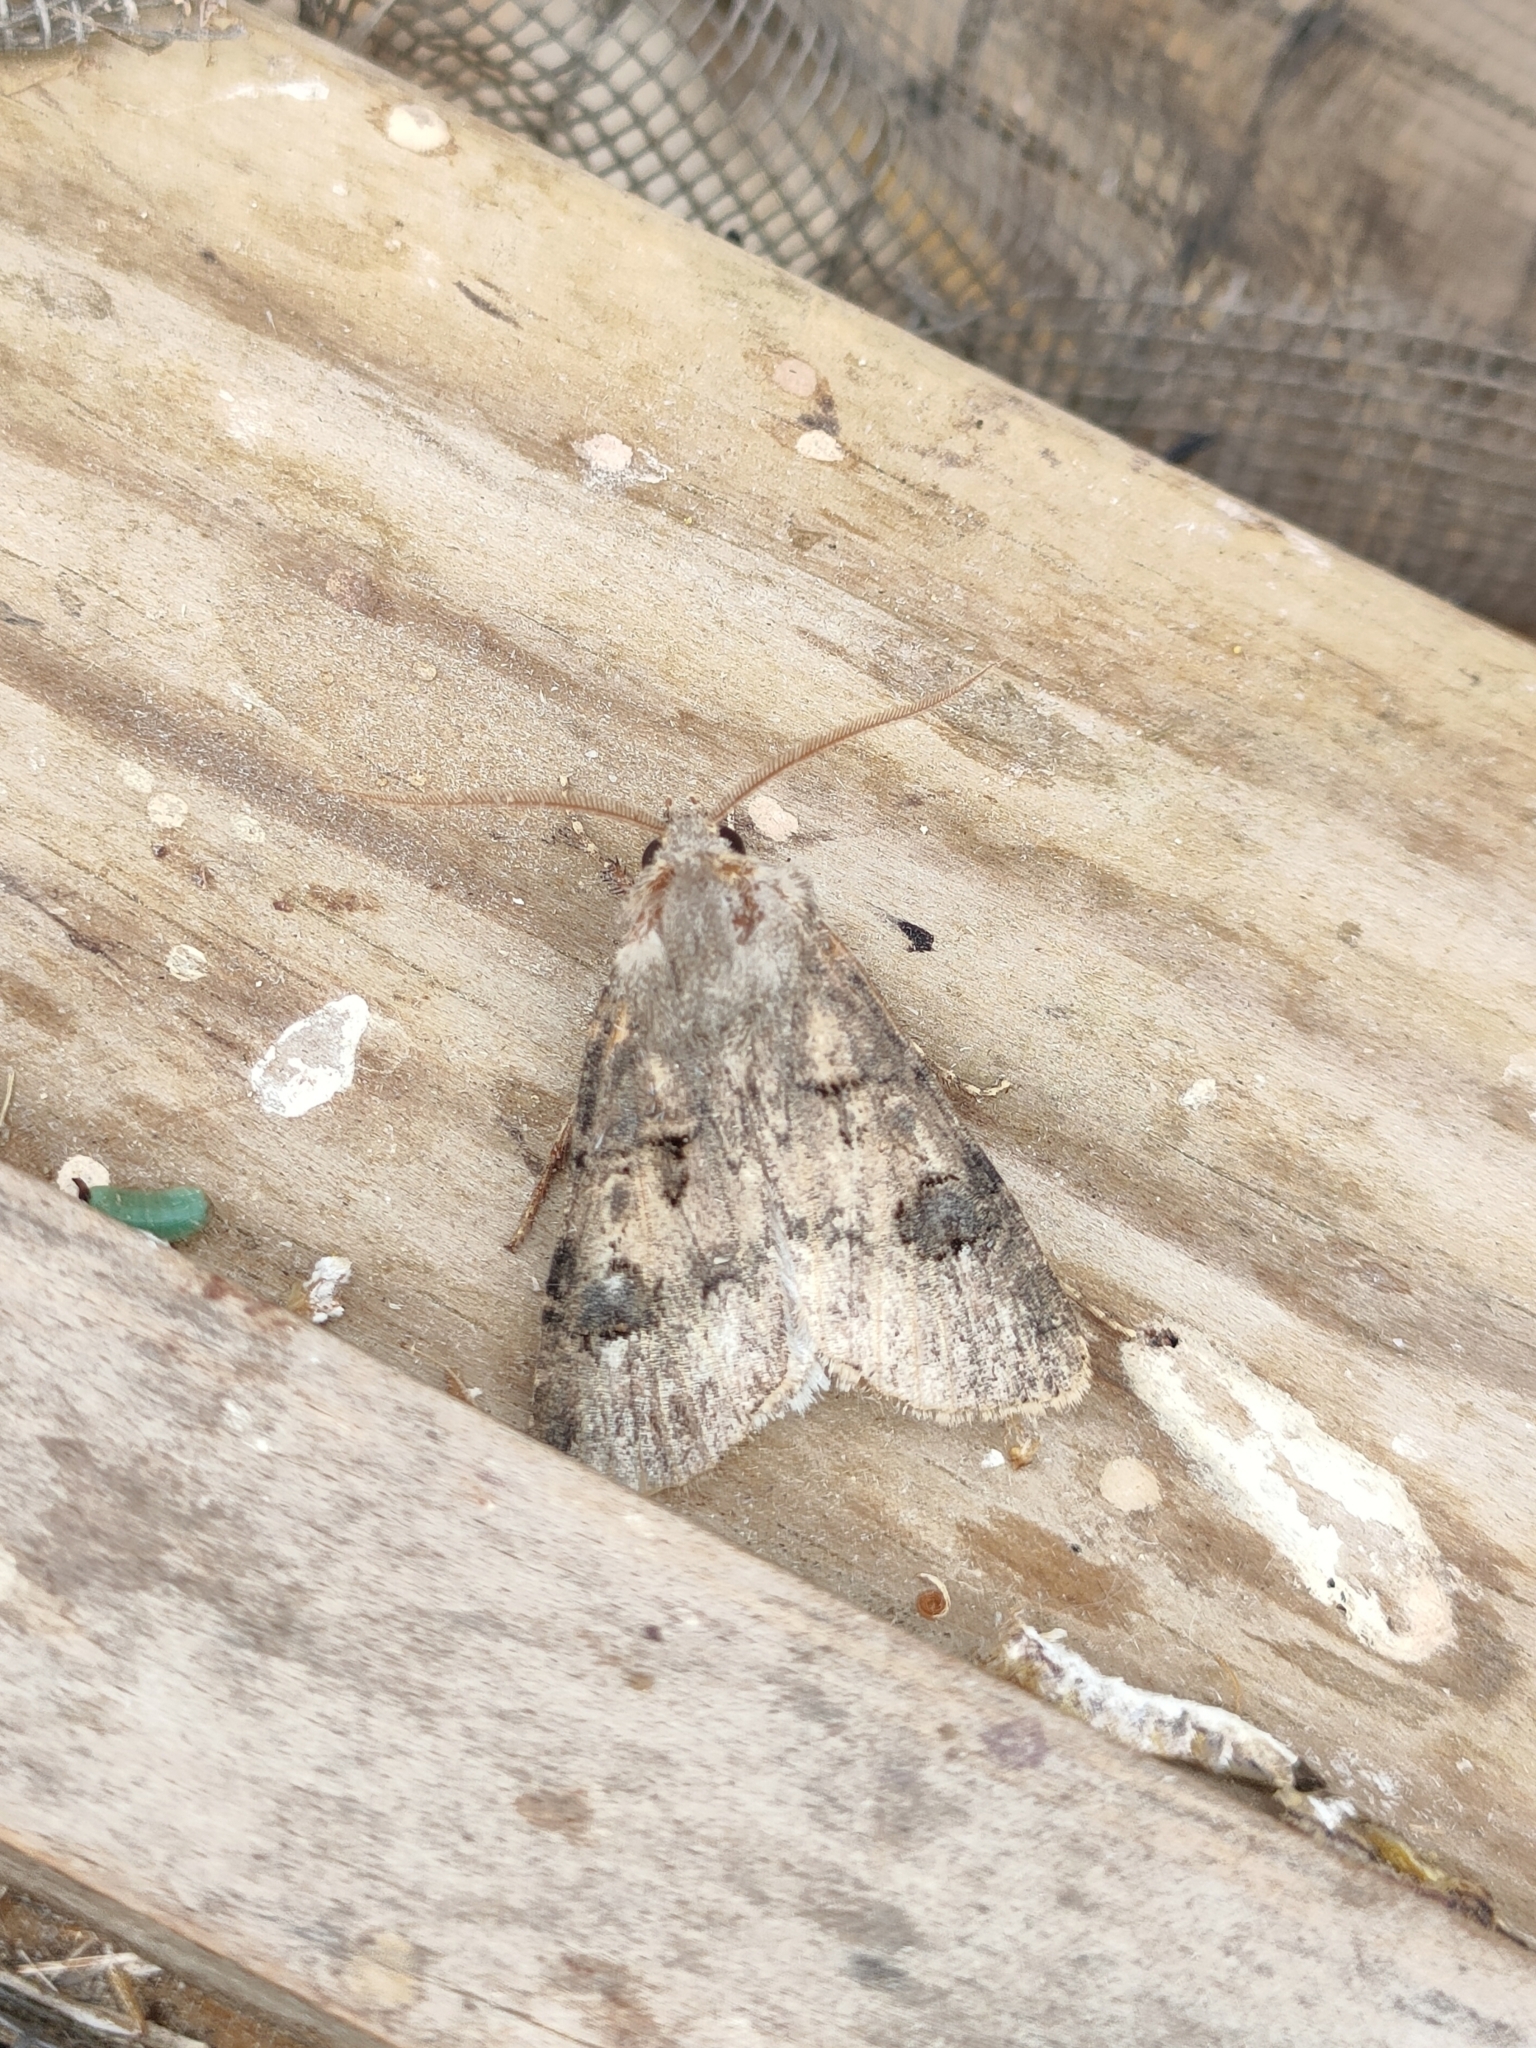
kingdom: Animalia
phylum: Arthropoda
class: Insecta
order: Lepidoptera
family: Noctuidae
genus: Agrotis
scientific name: Agrotis bigramma
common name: Great dart
